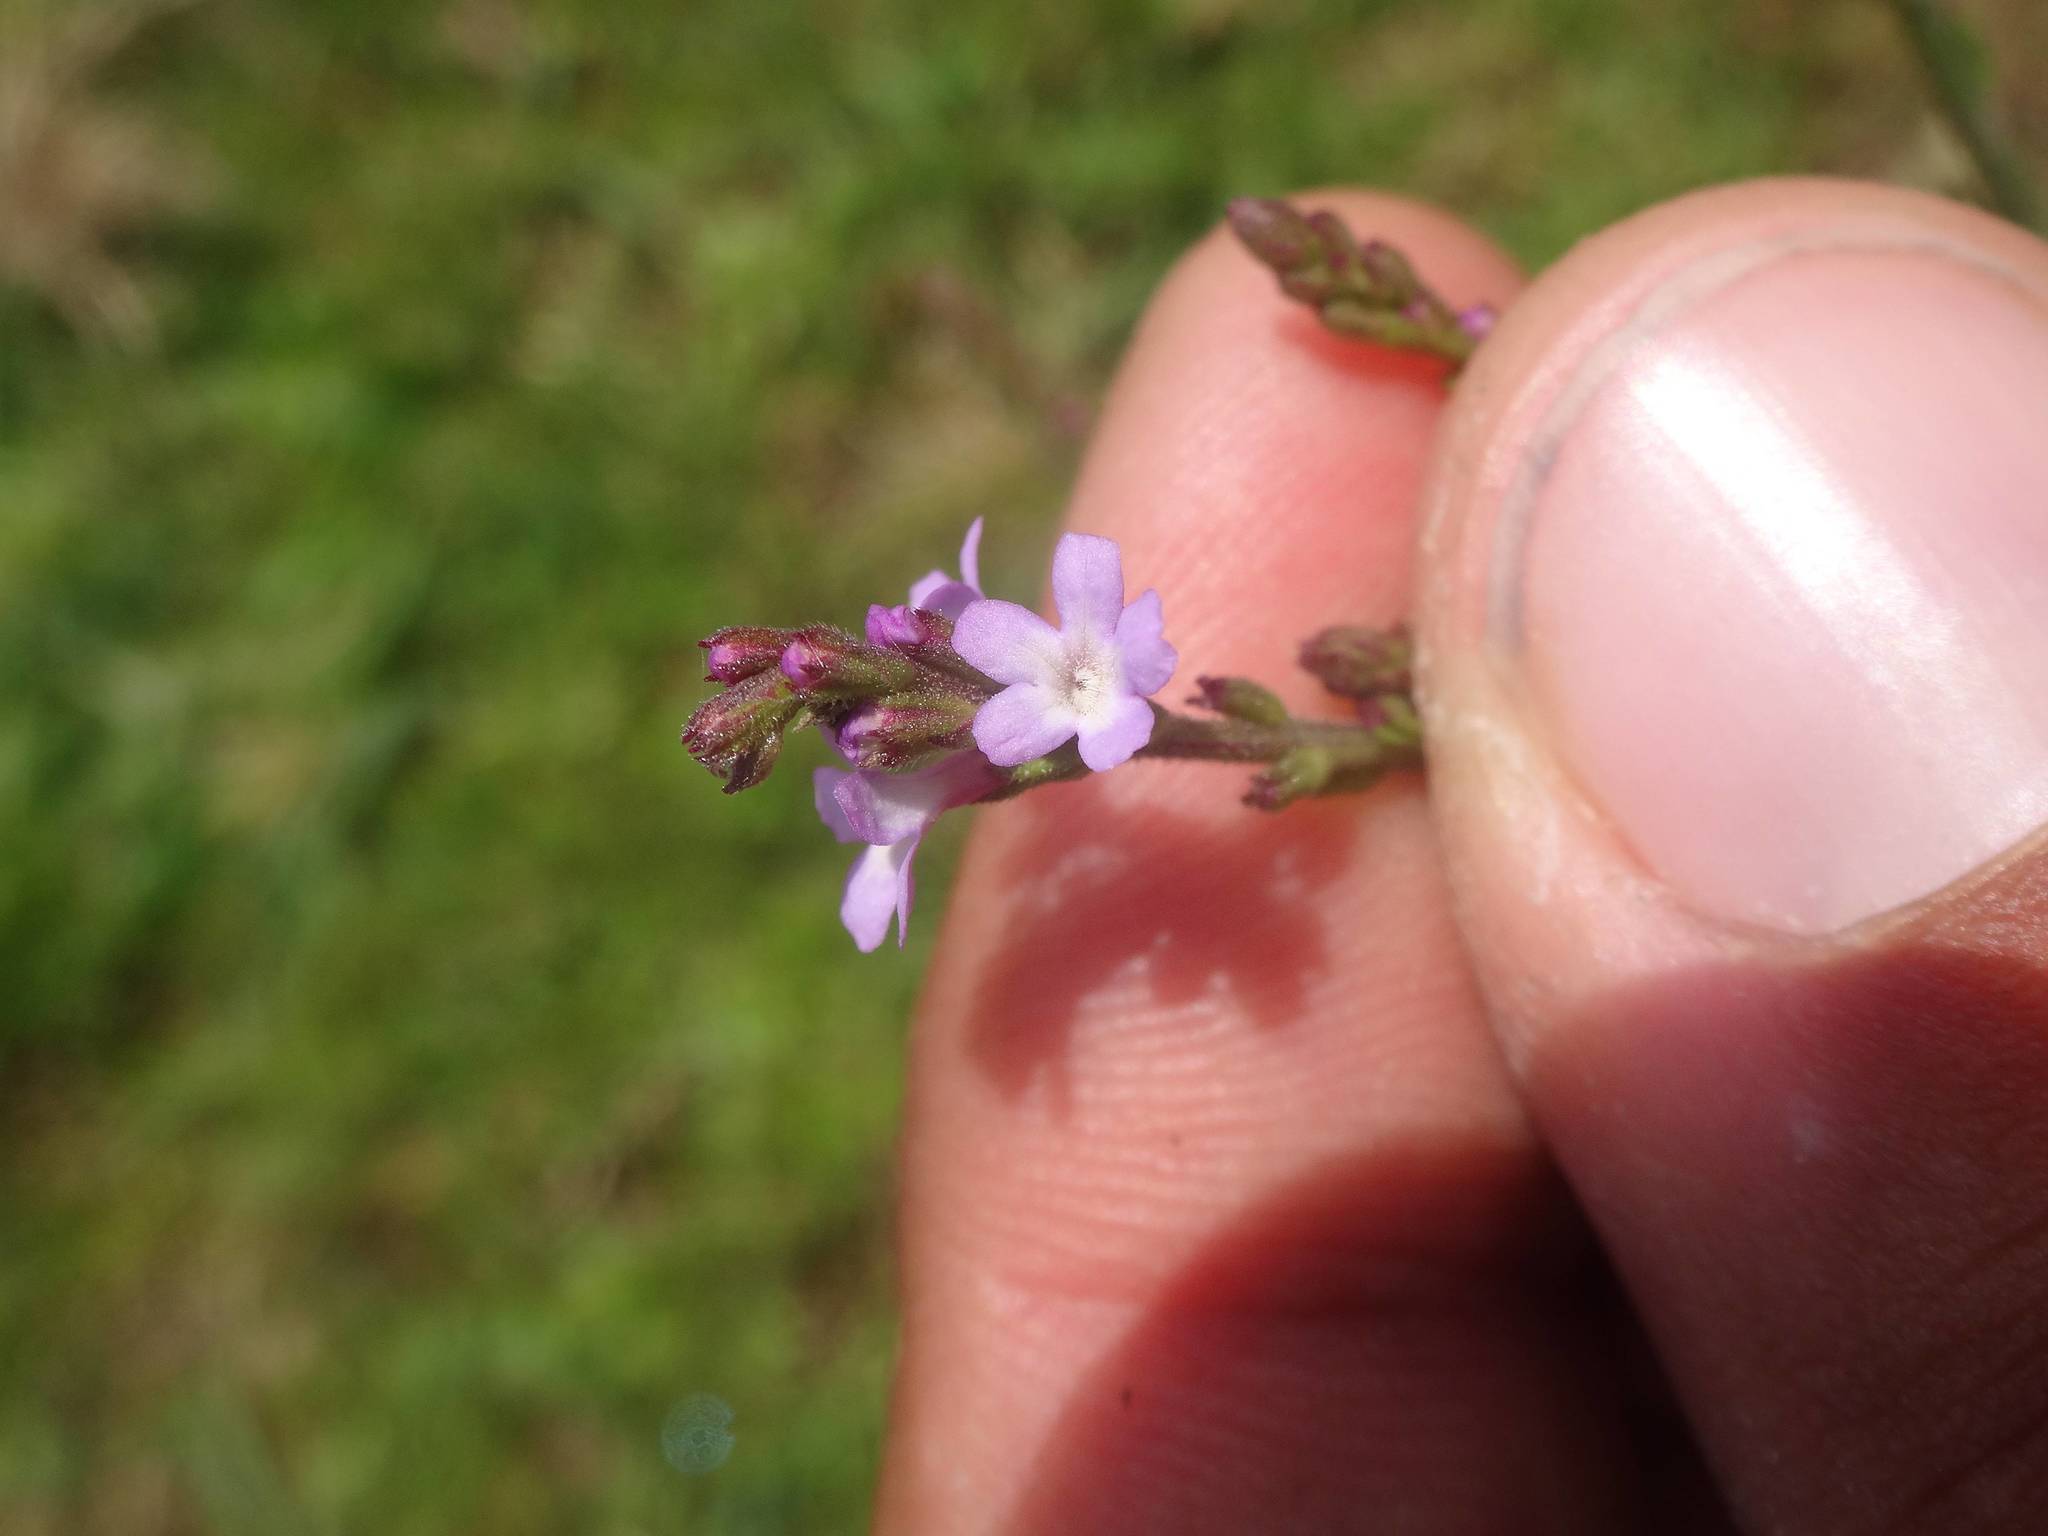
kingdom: Plantae
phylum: Tracheophyta
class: Magnoliopsida
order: Lamiales
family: Verbenaceae
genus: Verbena
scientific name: Verbena officinalis
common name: Vervain
